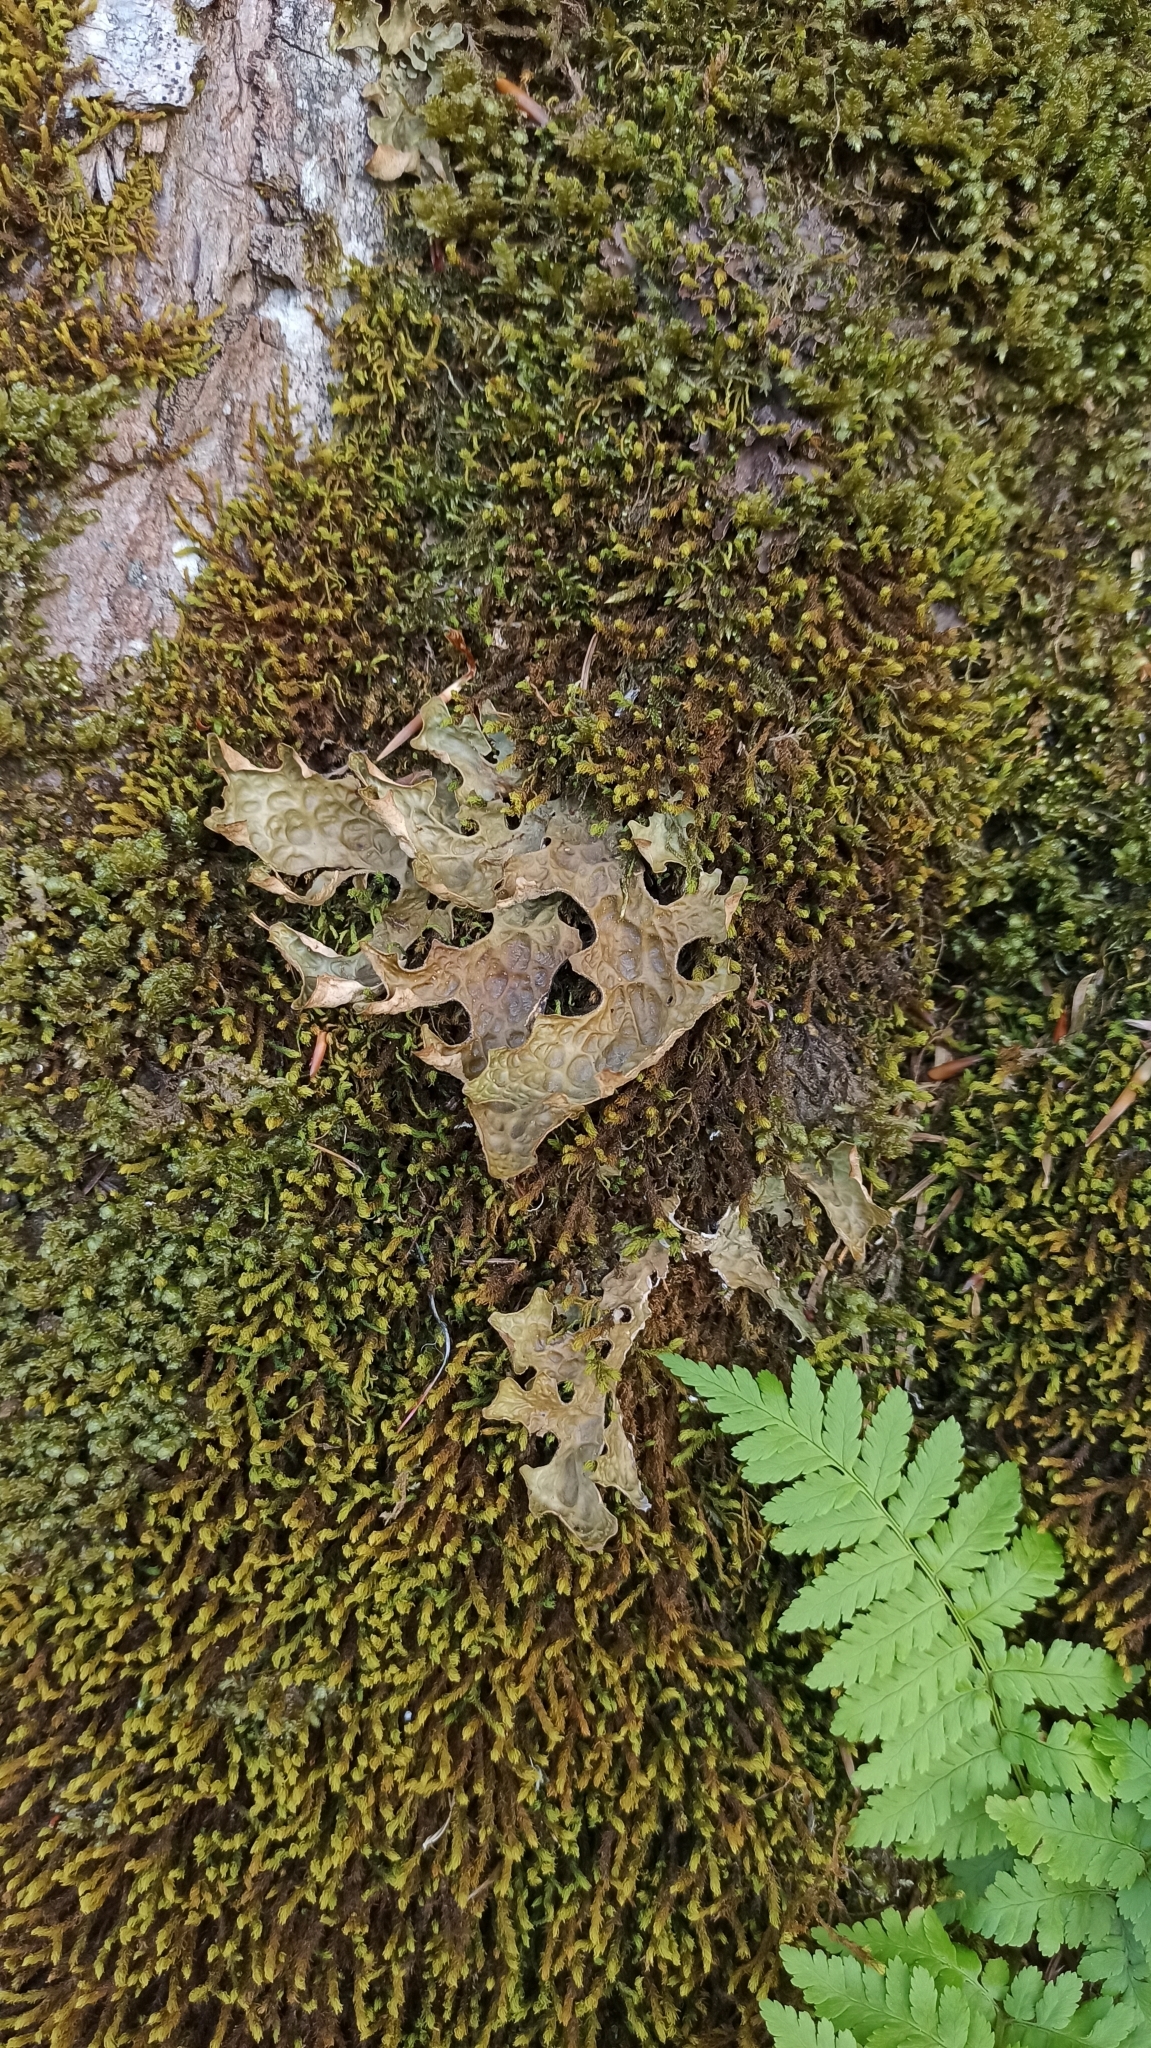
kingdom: Fungi
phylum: Ascomycota
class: Lecanoromycetes
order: Peltigerales
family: Lobariaceae
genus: Lobaria
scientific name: Lobaria pulmonaria
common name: Lungwort
